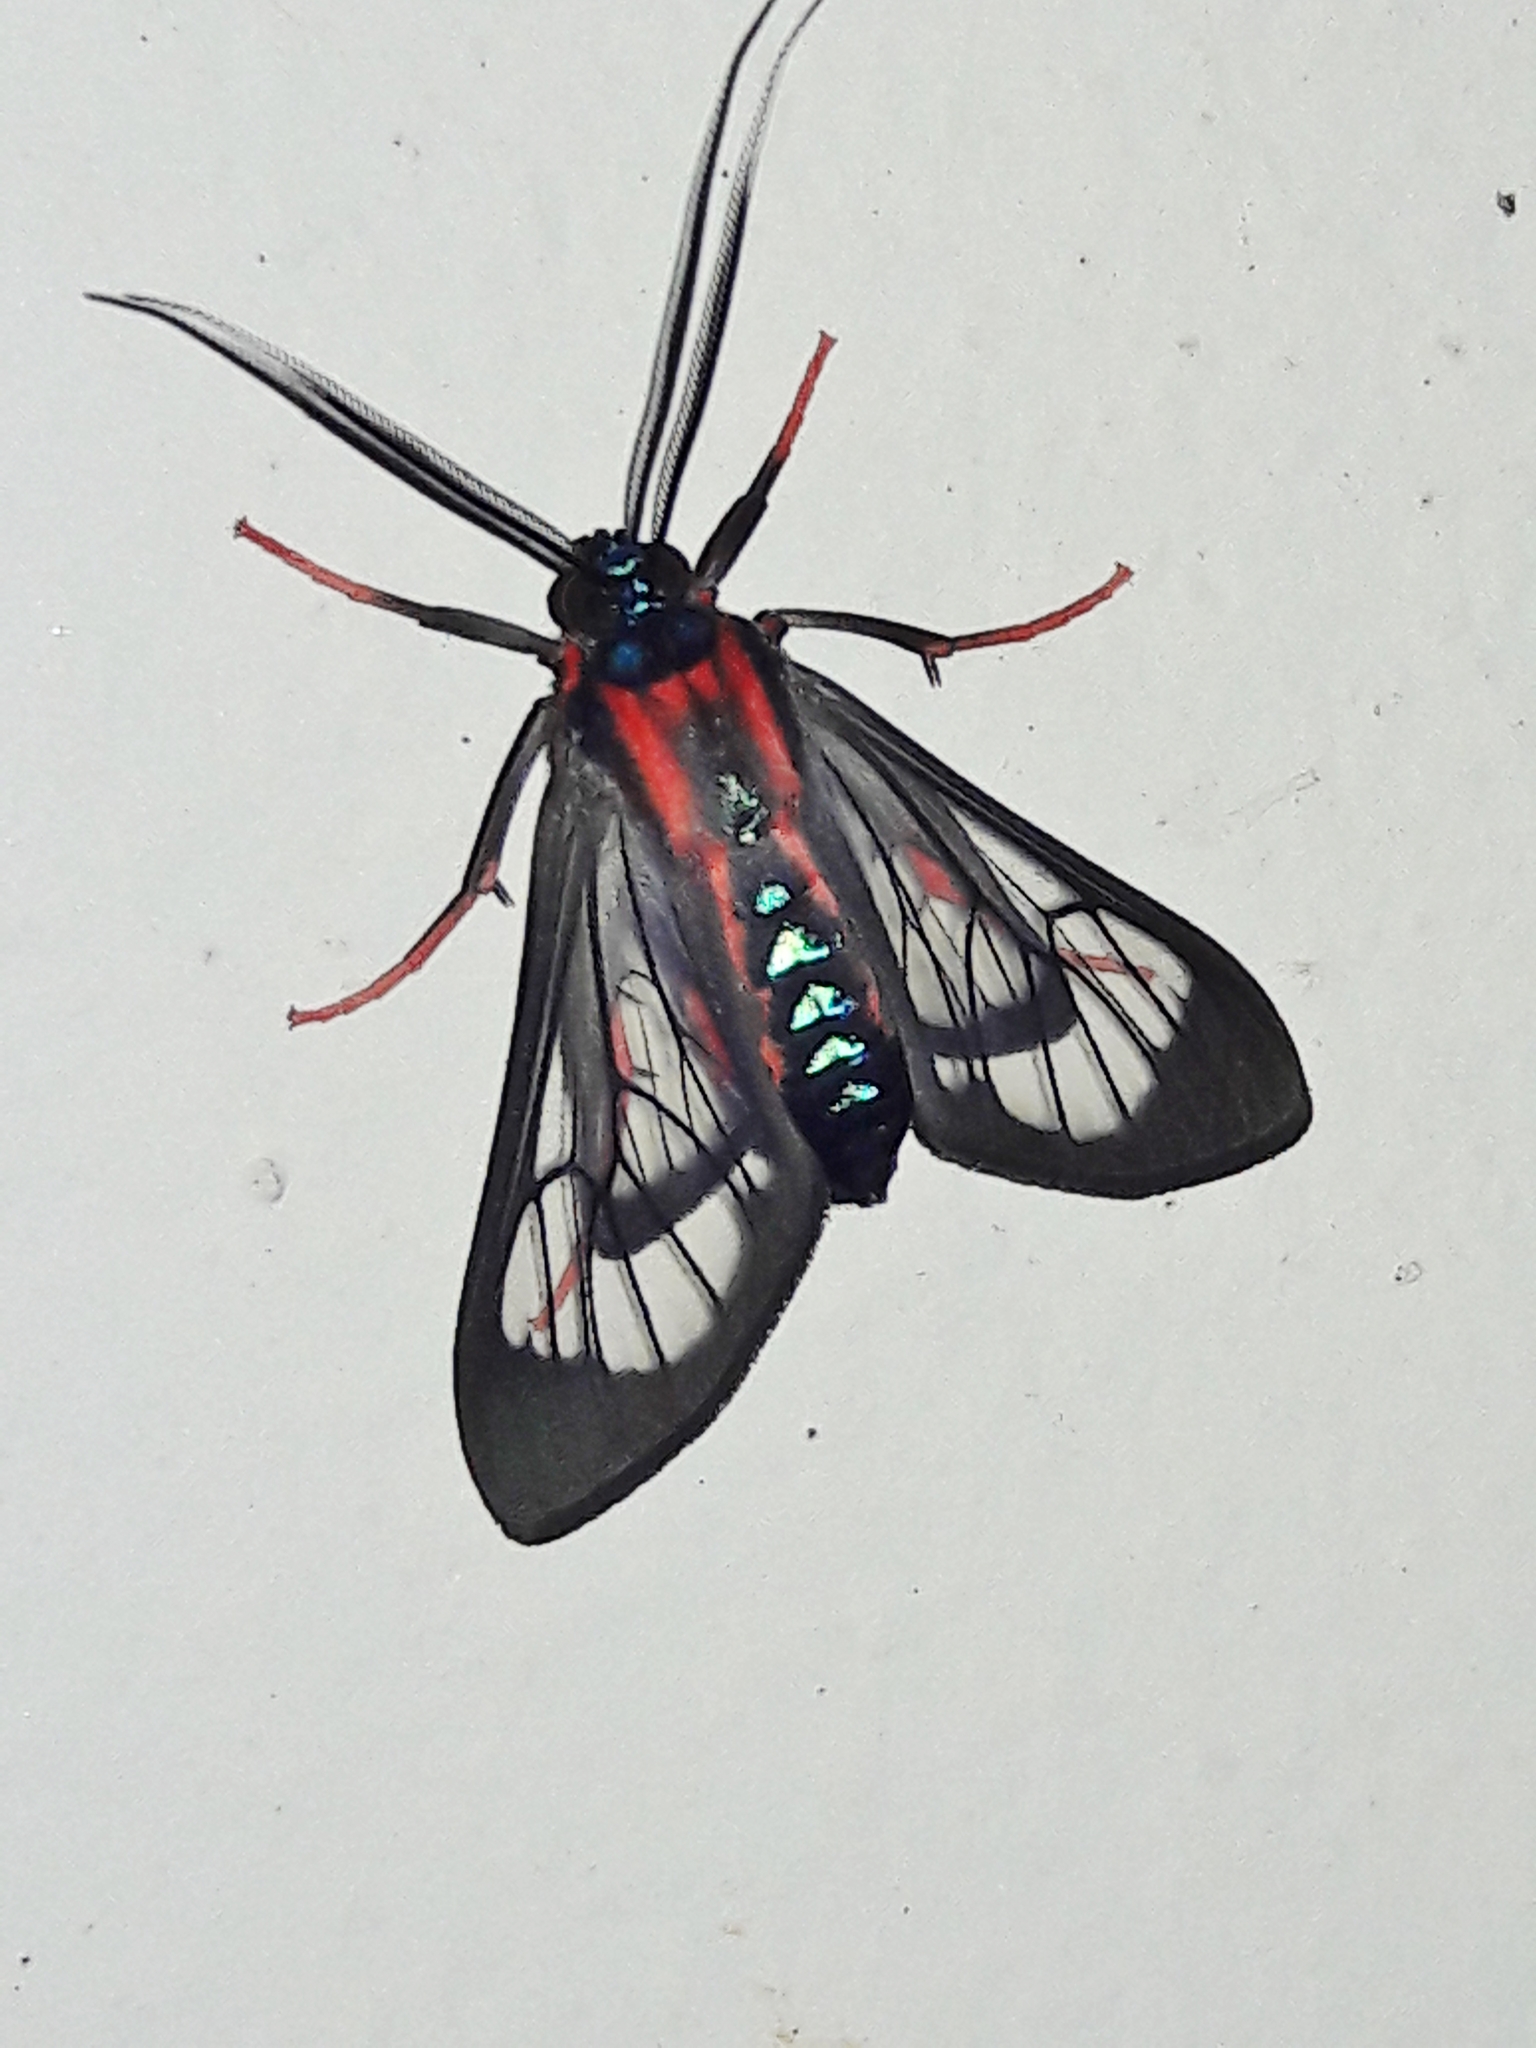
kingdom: Animalia
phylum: Arthropoda
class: Insecta
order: Lepidoptera
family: Erebidae
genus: Cosmosoma
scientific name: Cosmosoma auge
